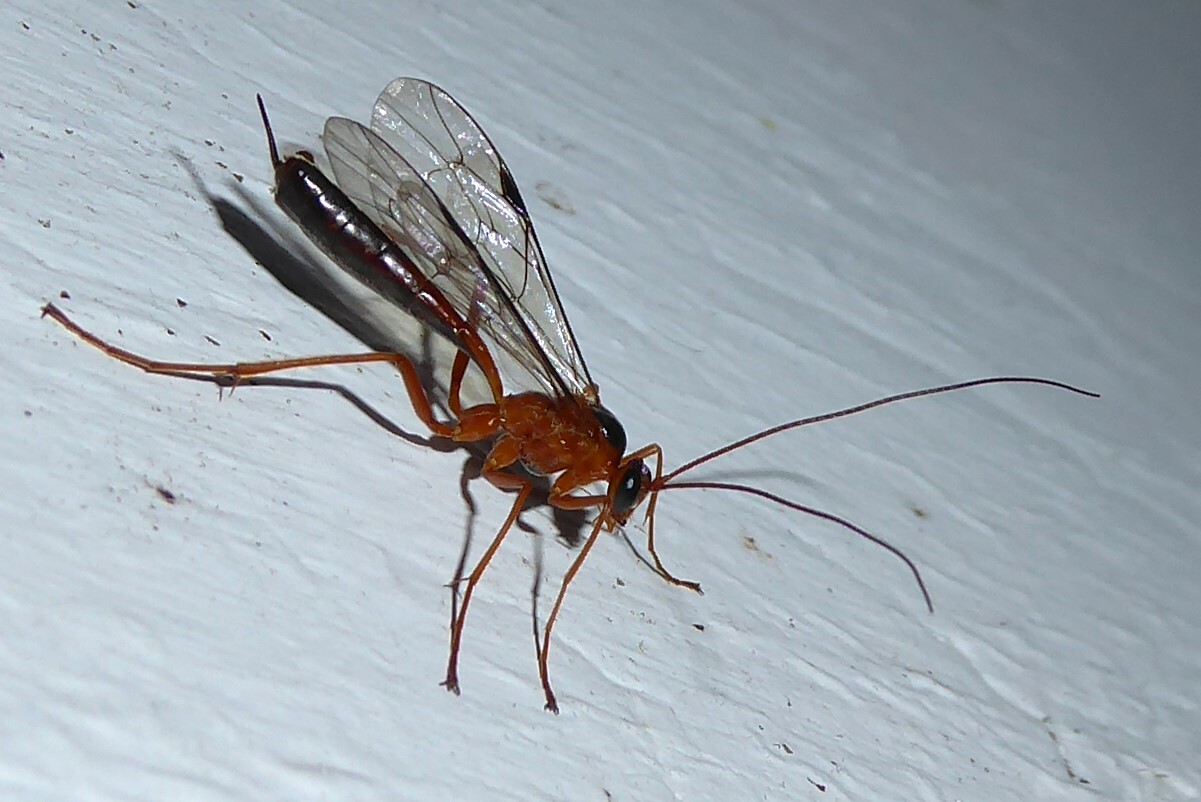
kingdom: Animalia
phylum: Arthropoda
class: Insecta
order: Hymenoptera
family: Ichneumonidae
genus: Netelia
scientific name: Netelia ephippiata
